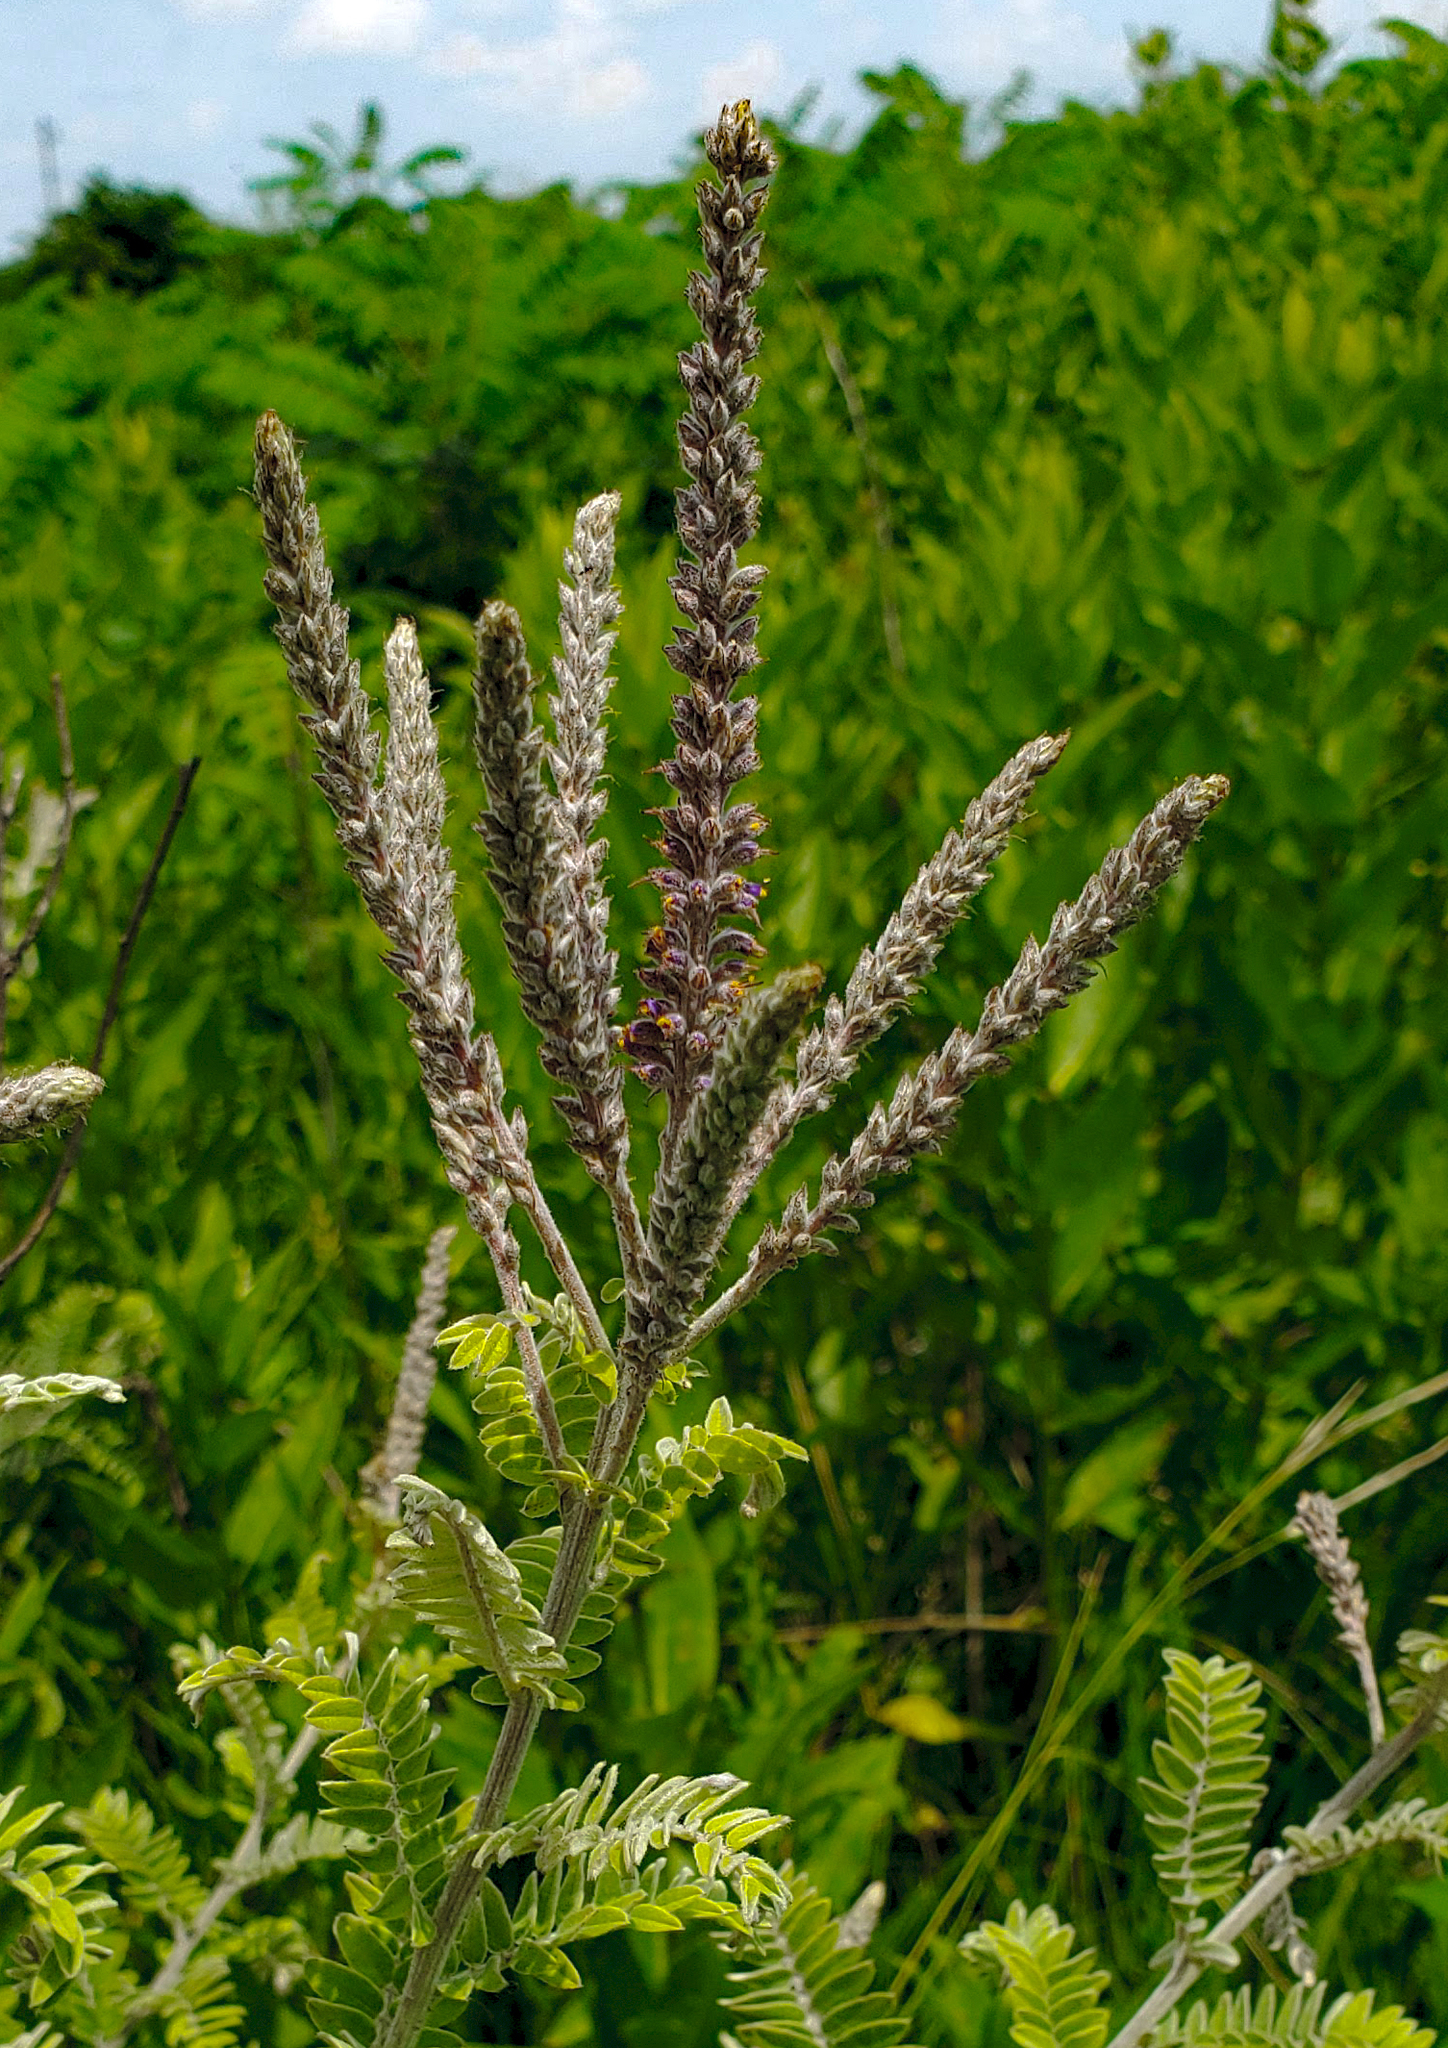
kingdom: Plantae
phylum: Tracheophyta
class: Magnoliopsida
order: Fabales
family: Fabaceae
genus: Amorpha
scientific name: Amorpha canescens
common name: Leadplant
